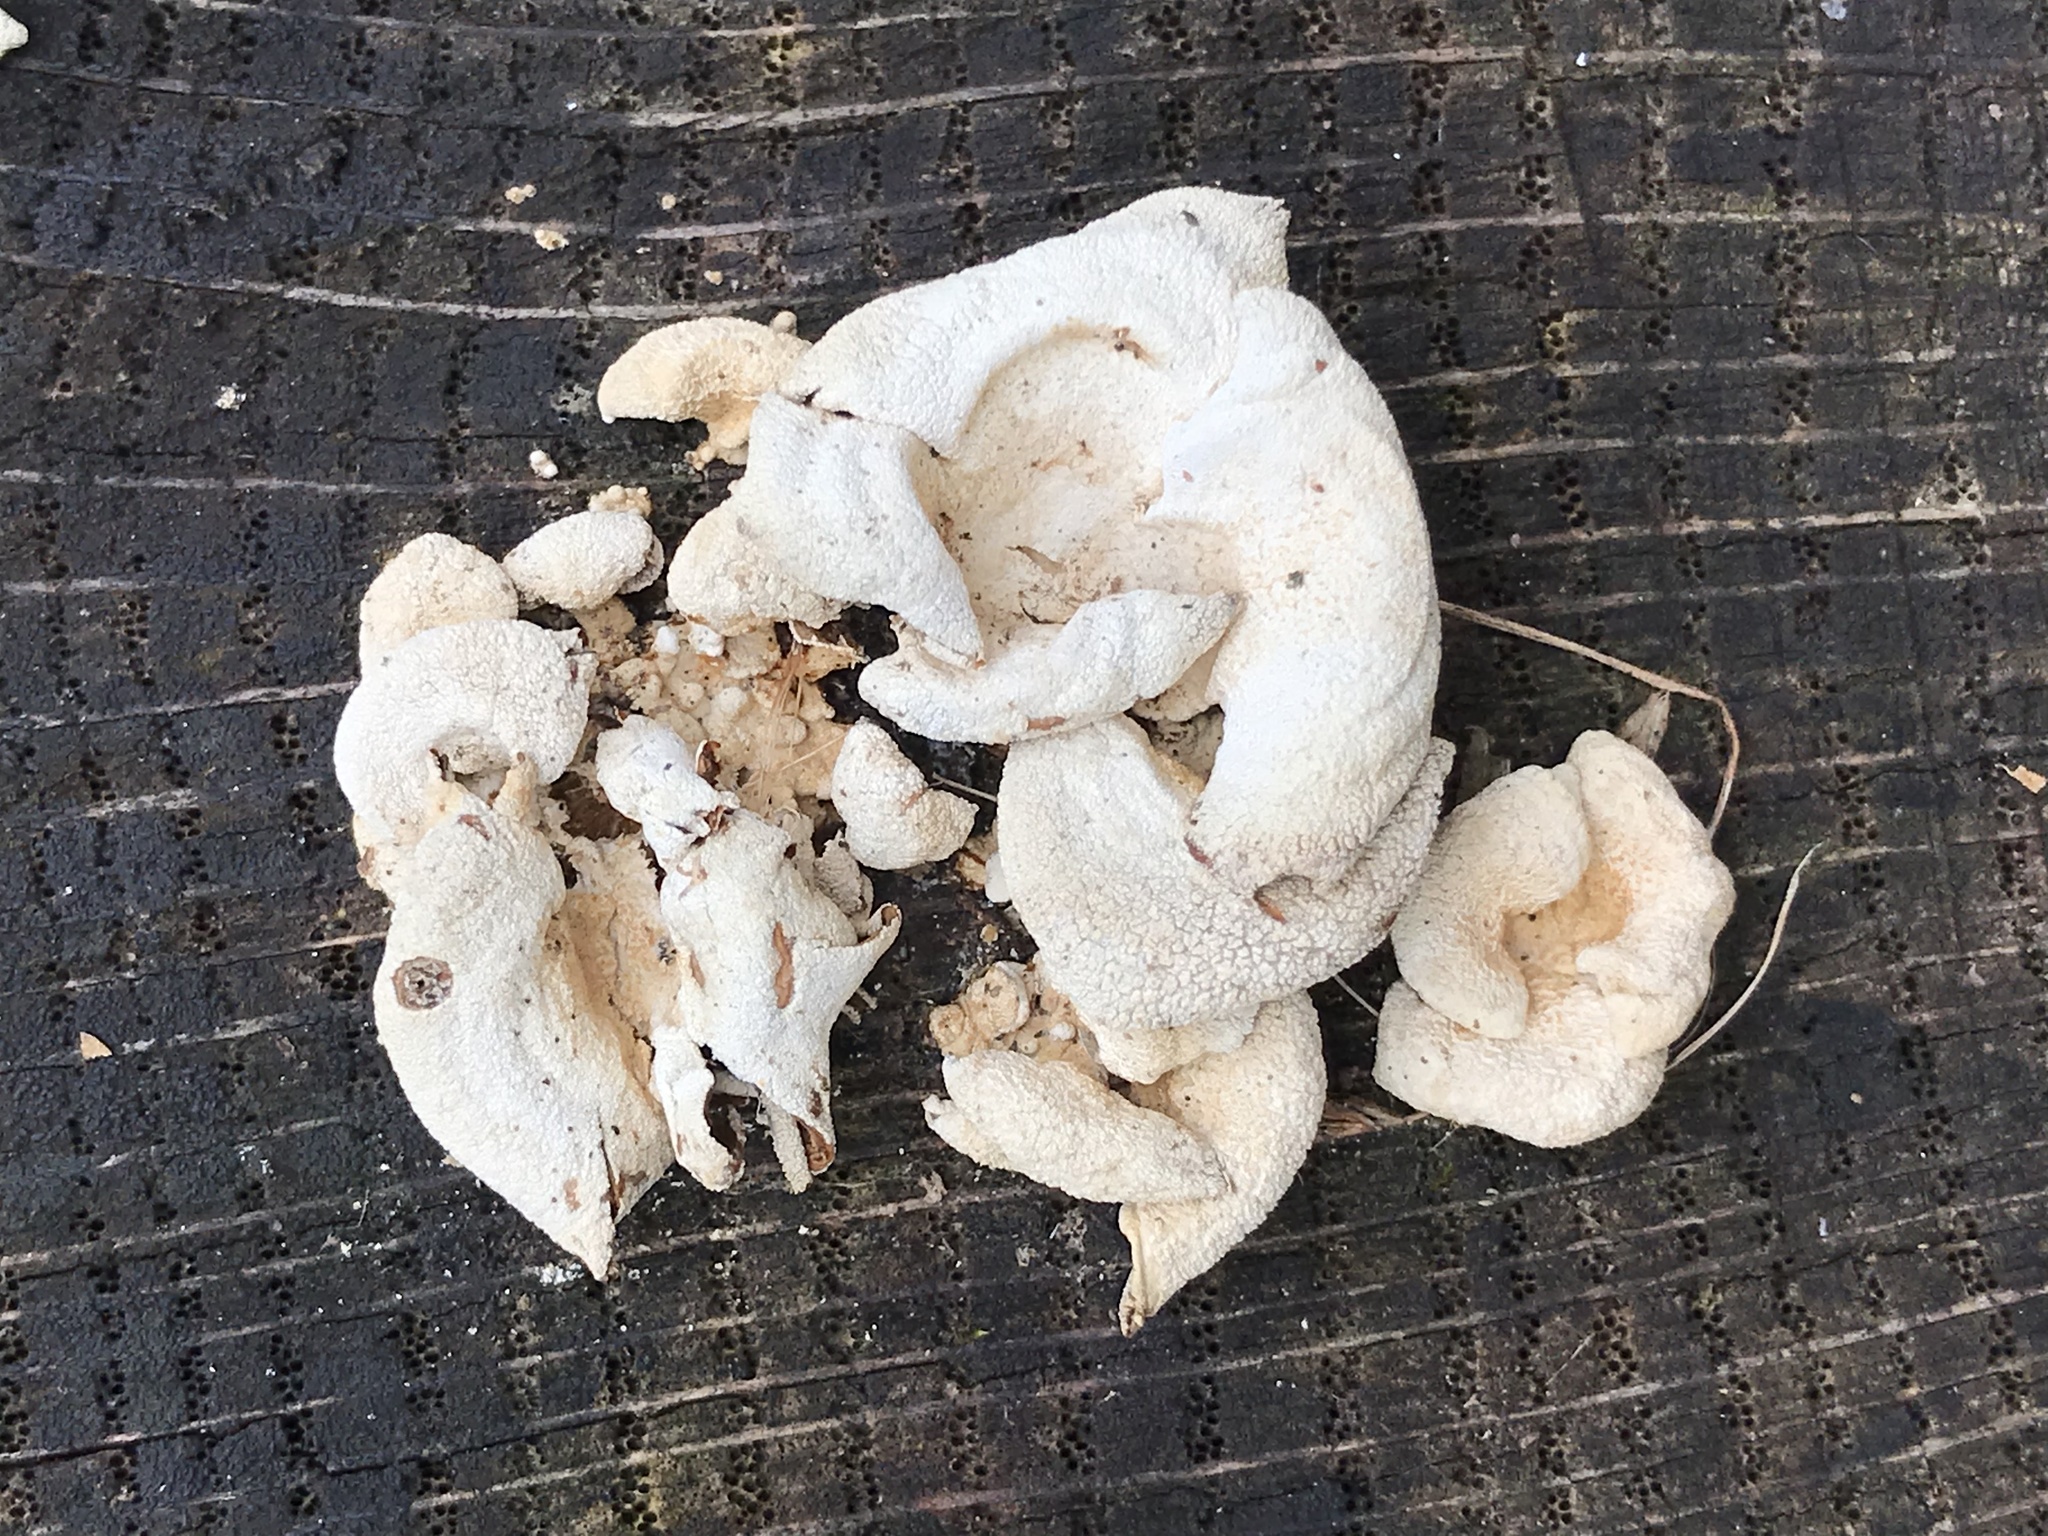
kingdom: Fungi
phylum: Basidiomycota
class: Agaricomycetes
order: Agaricales
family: Mycenaceae
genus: Panellus
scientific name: Panellus stipticus
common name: Bitter oysterling
